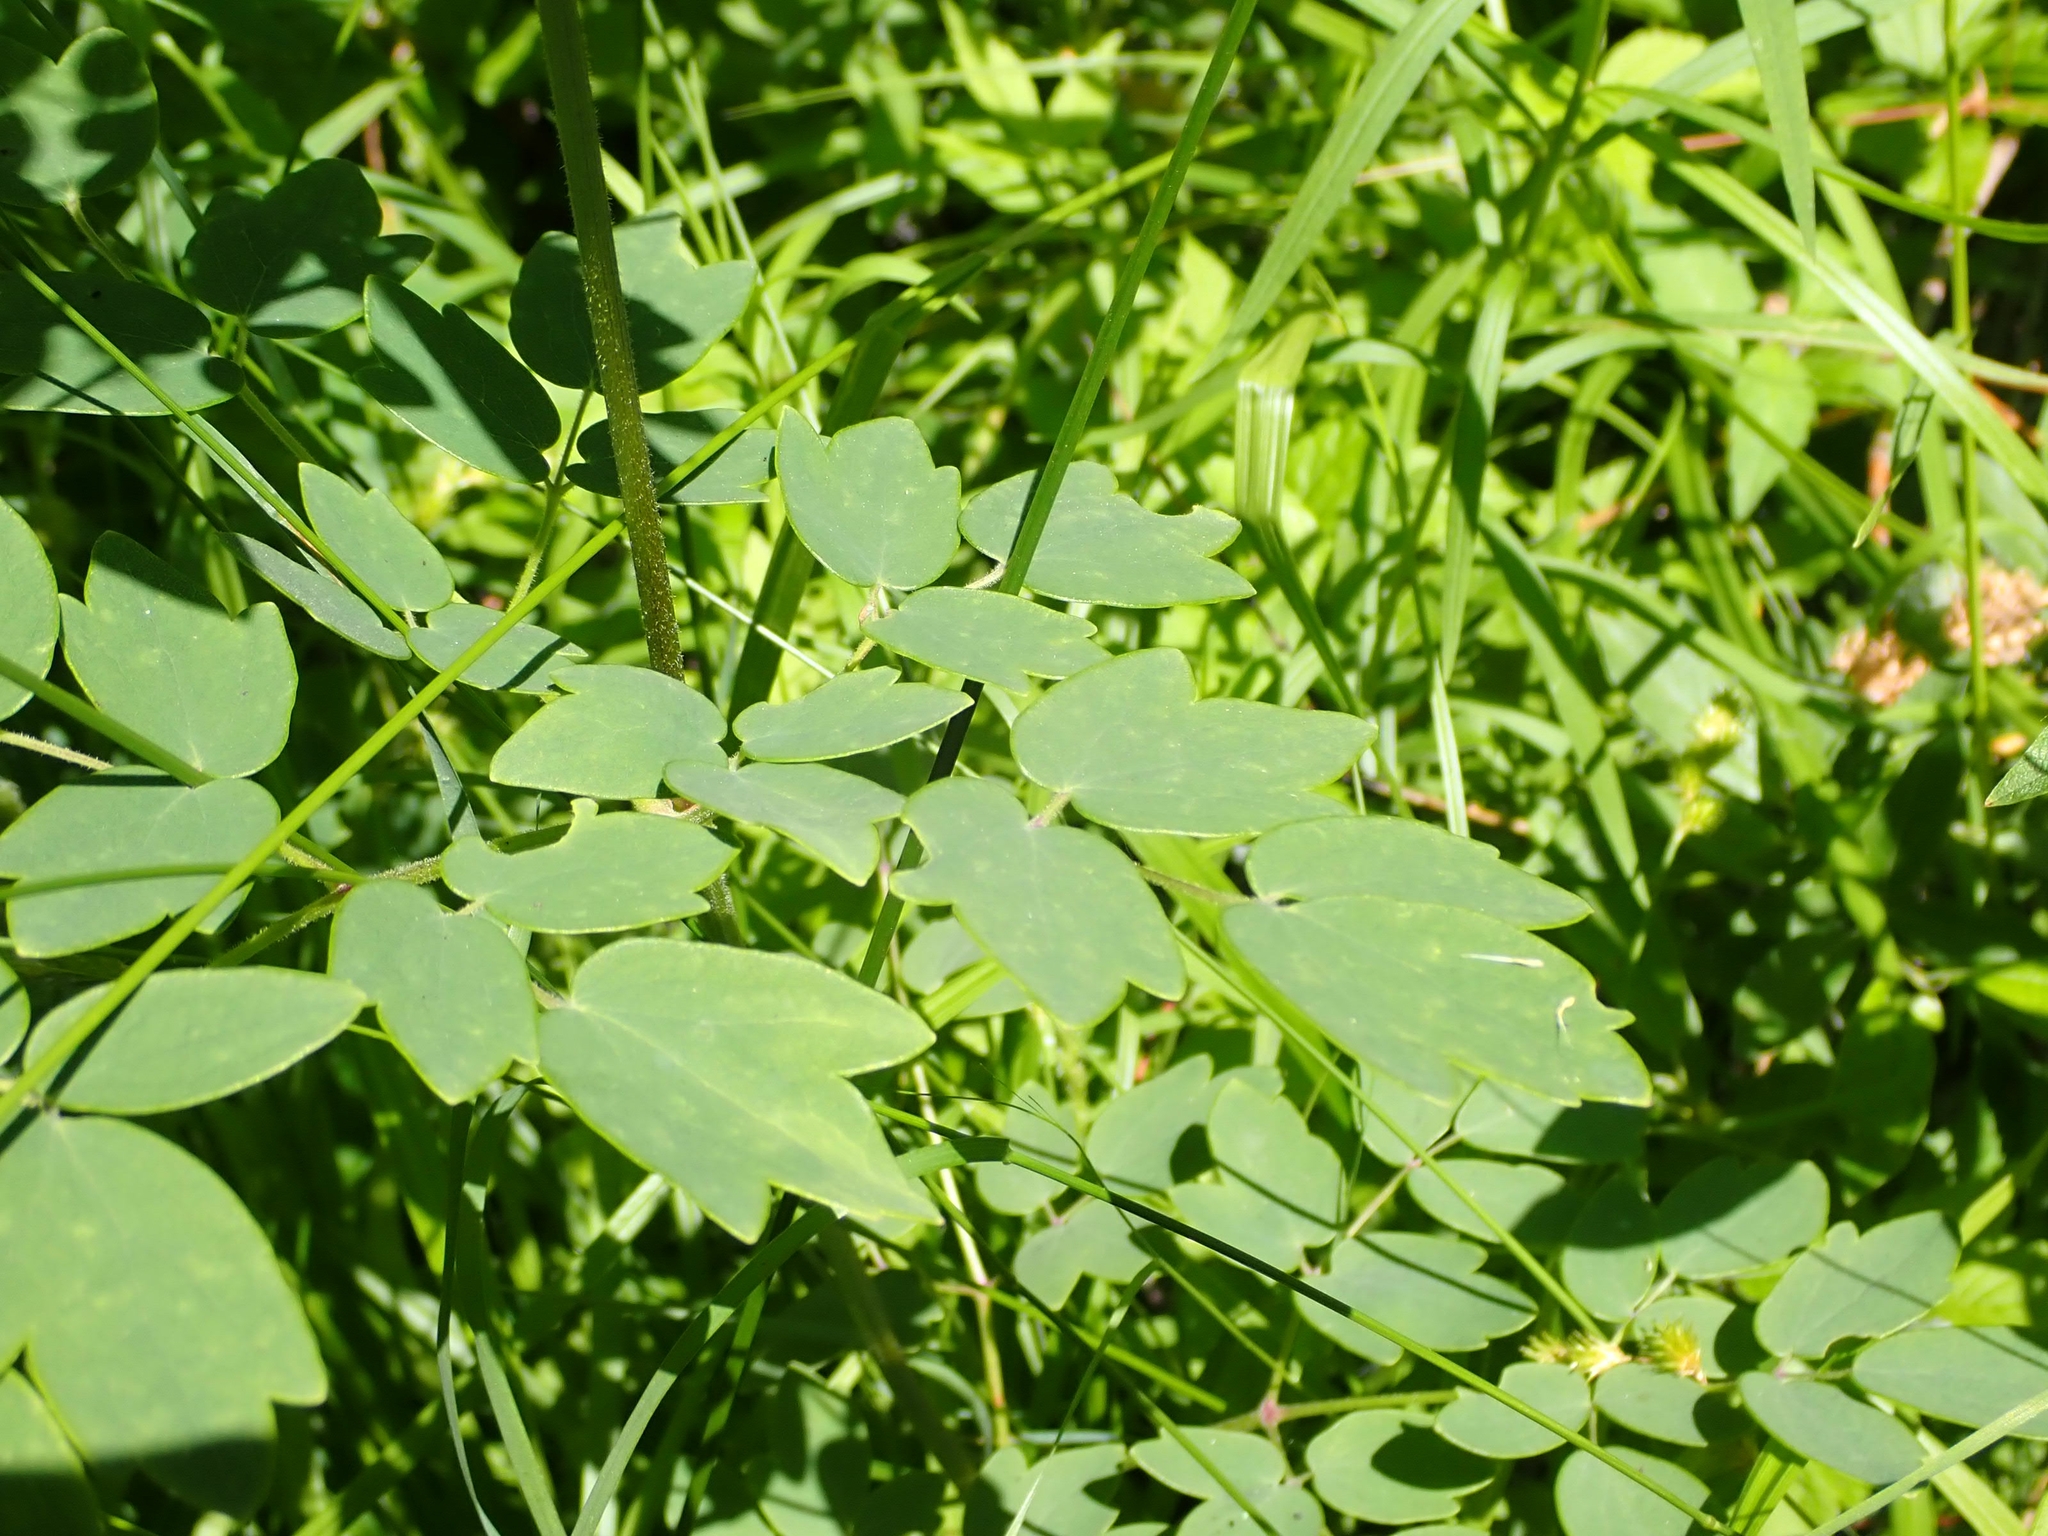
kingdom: Plantae
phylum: Tracheophyta
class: Magnoliopsida
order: Ranunculales
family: Ranunculaceae
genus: Thalictrum
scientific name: Thalictrum dasycarpum
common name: Purple meadow-rue
